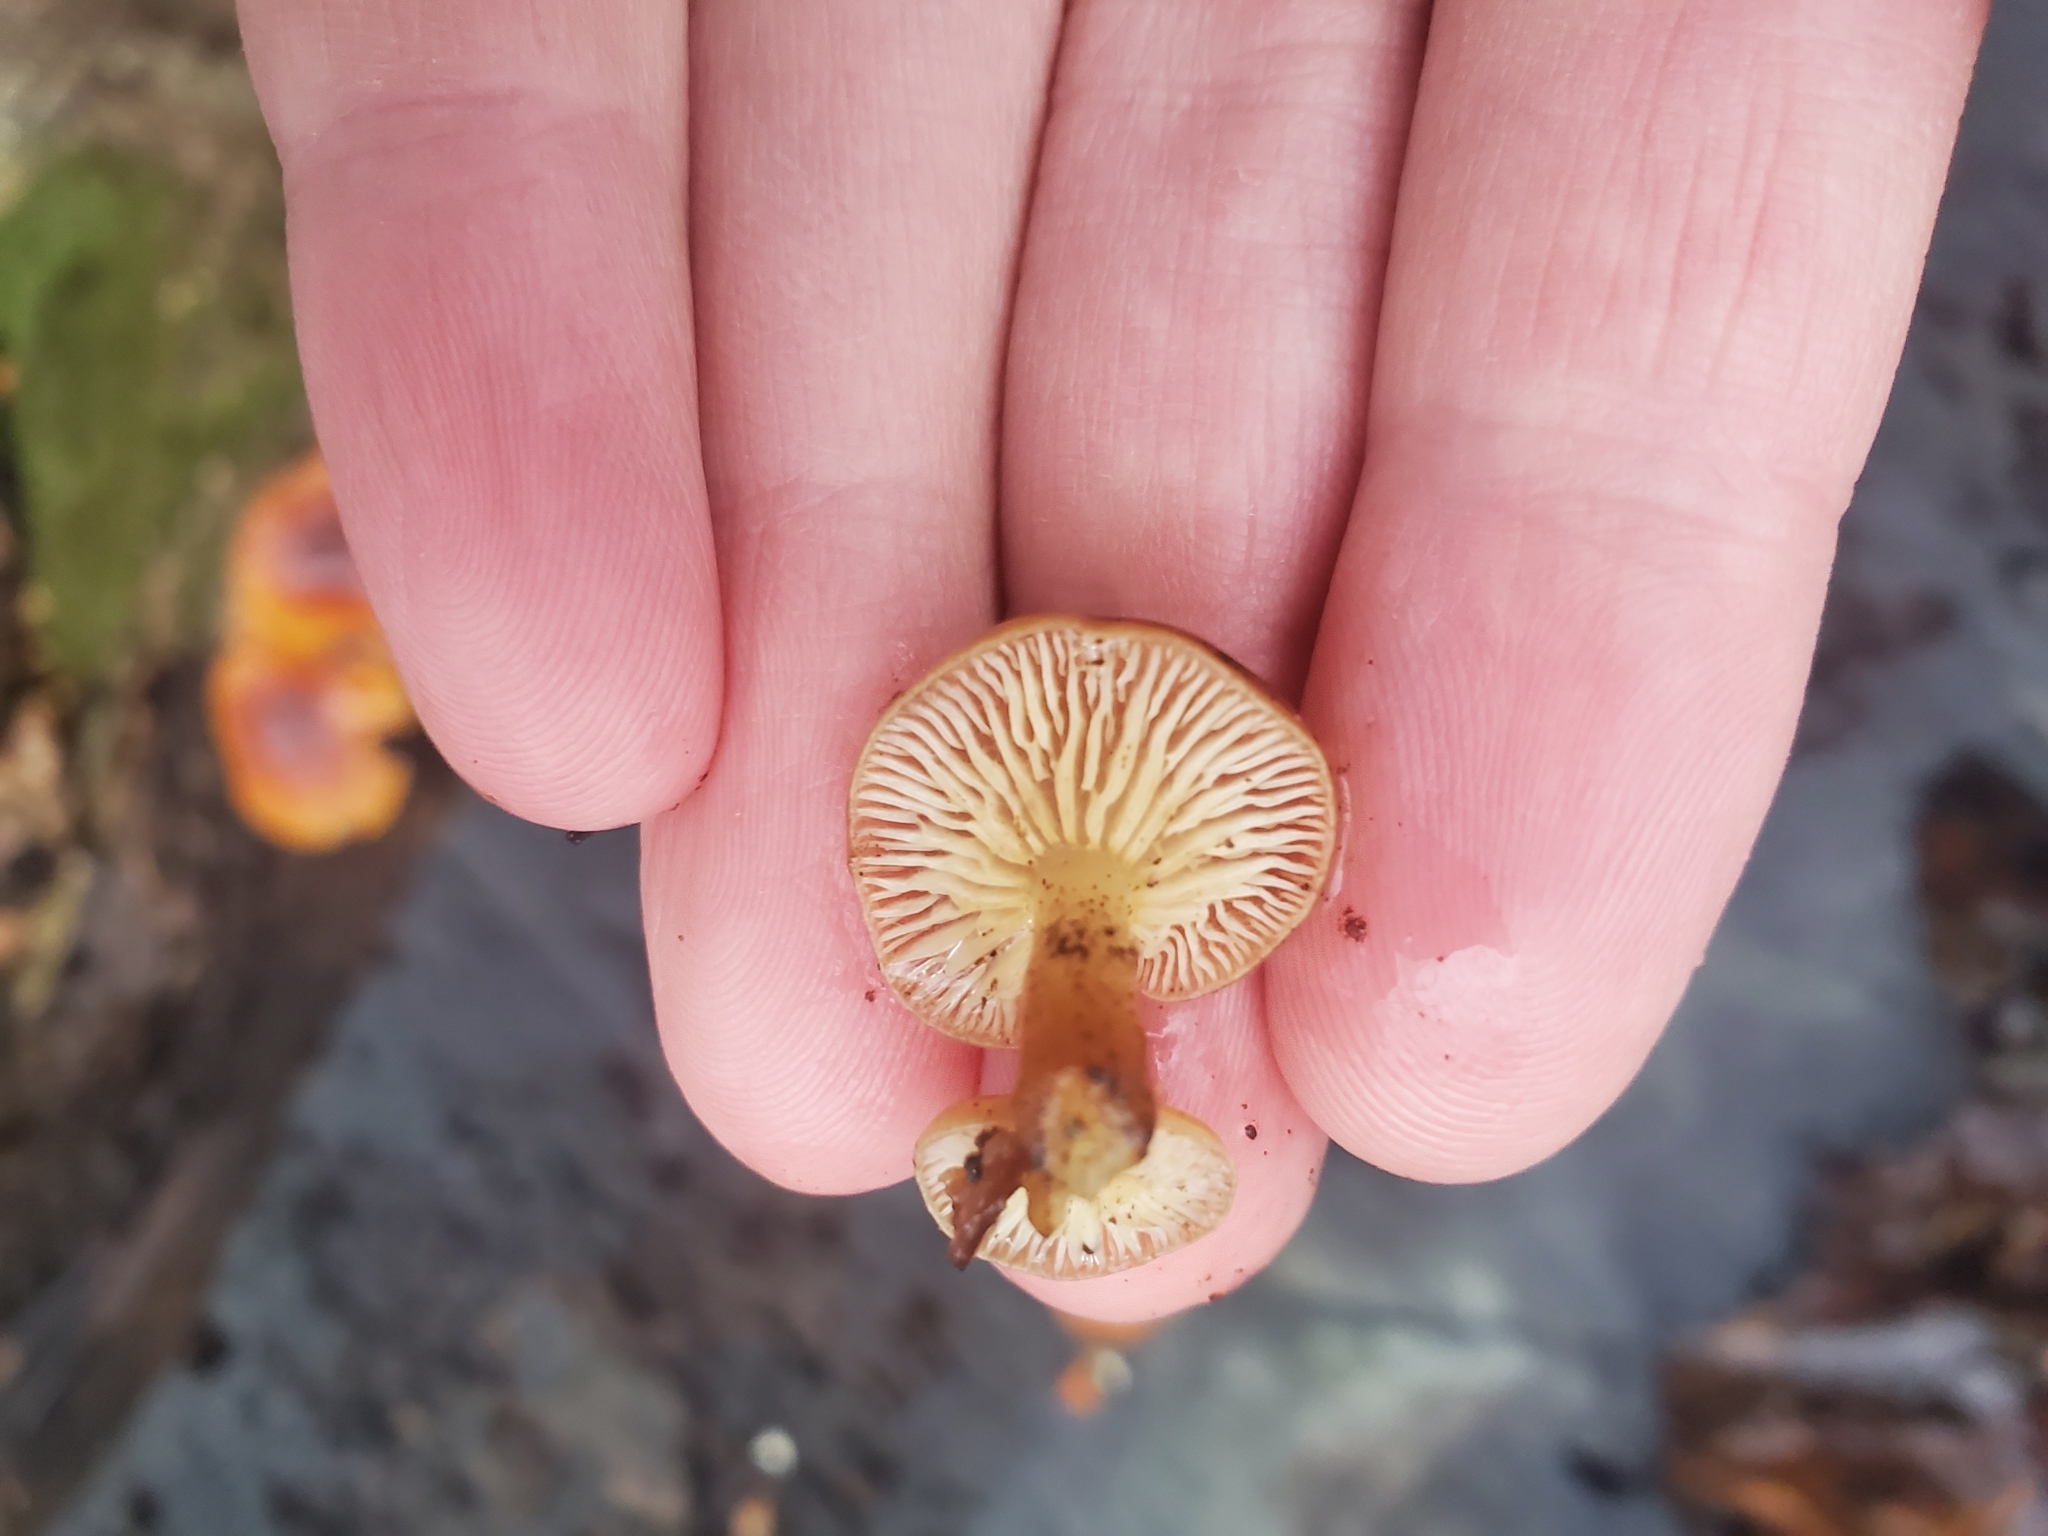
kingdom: Fungi
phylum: Basidiomycota
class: Agaricomycetes
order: Agaricales
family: Physalacriaceae
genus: Flammulina
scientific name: Flammulina velutipes
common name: Velvet shank
